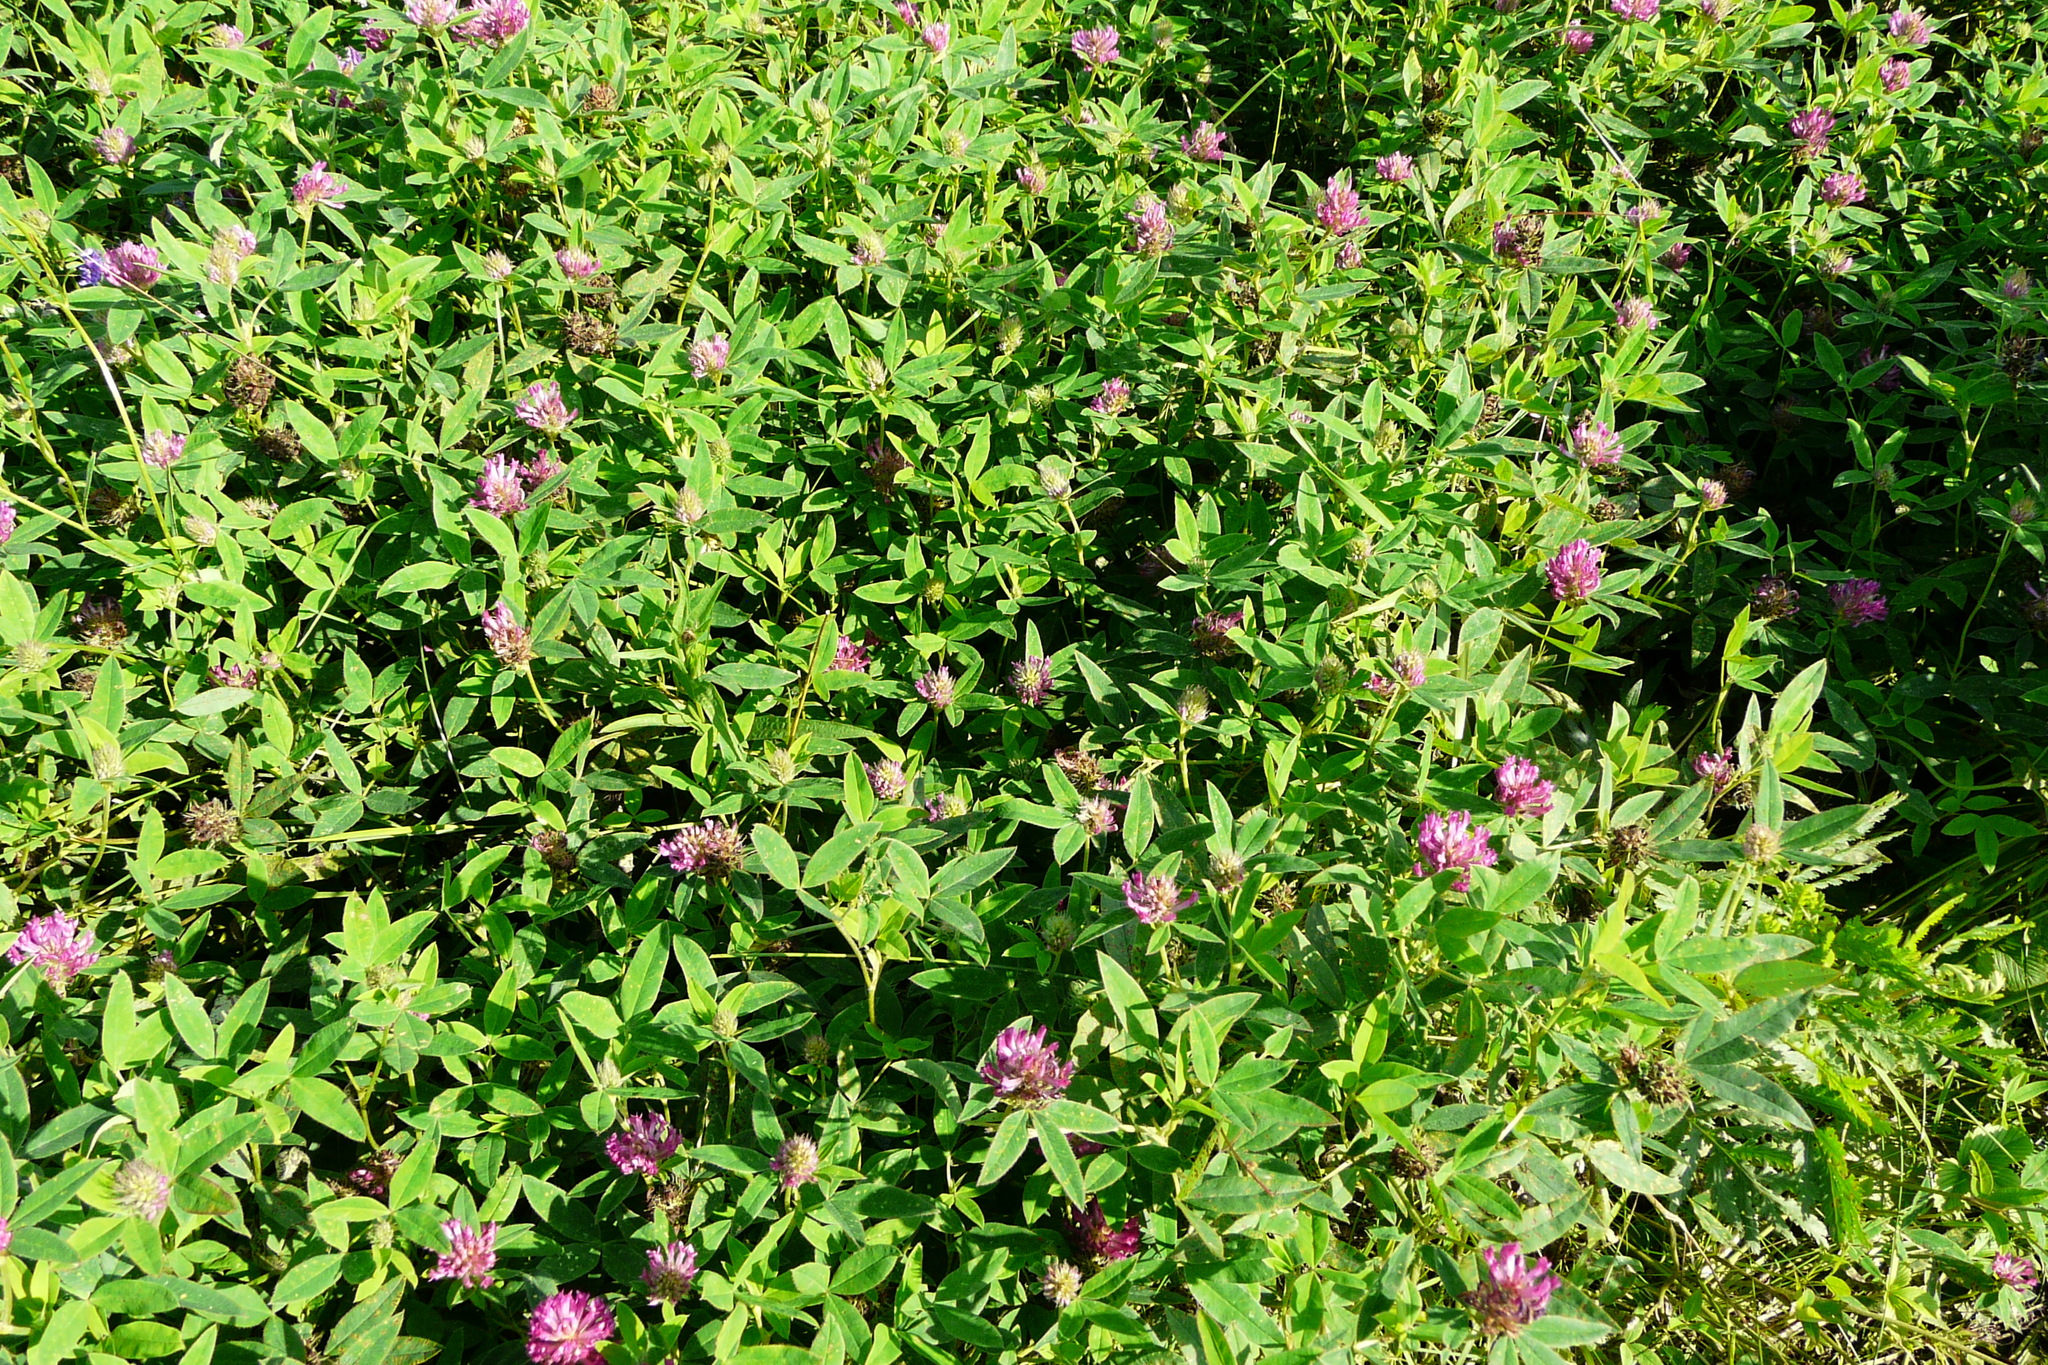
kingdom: Plantae
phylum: Tracheophyta
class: Magnoliopsida
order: Fabales
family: Fabaceae
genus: Trifolium
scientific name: Trifolium medium
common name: Zigzag clover
